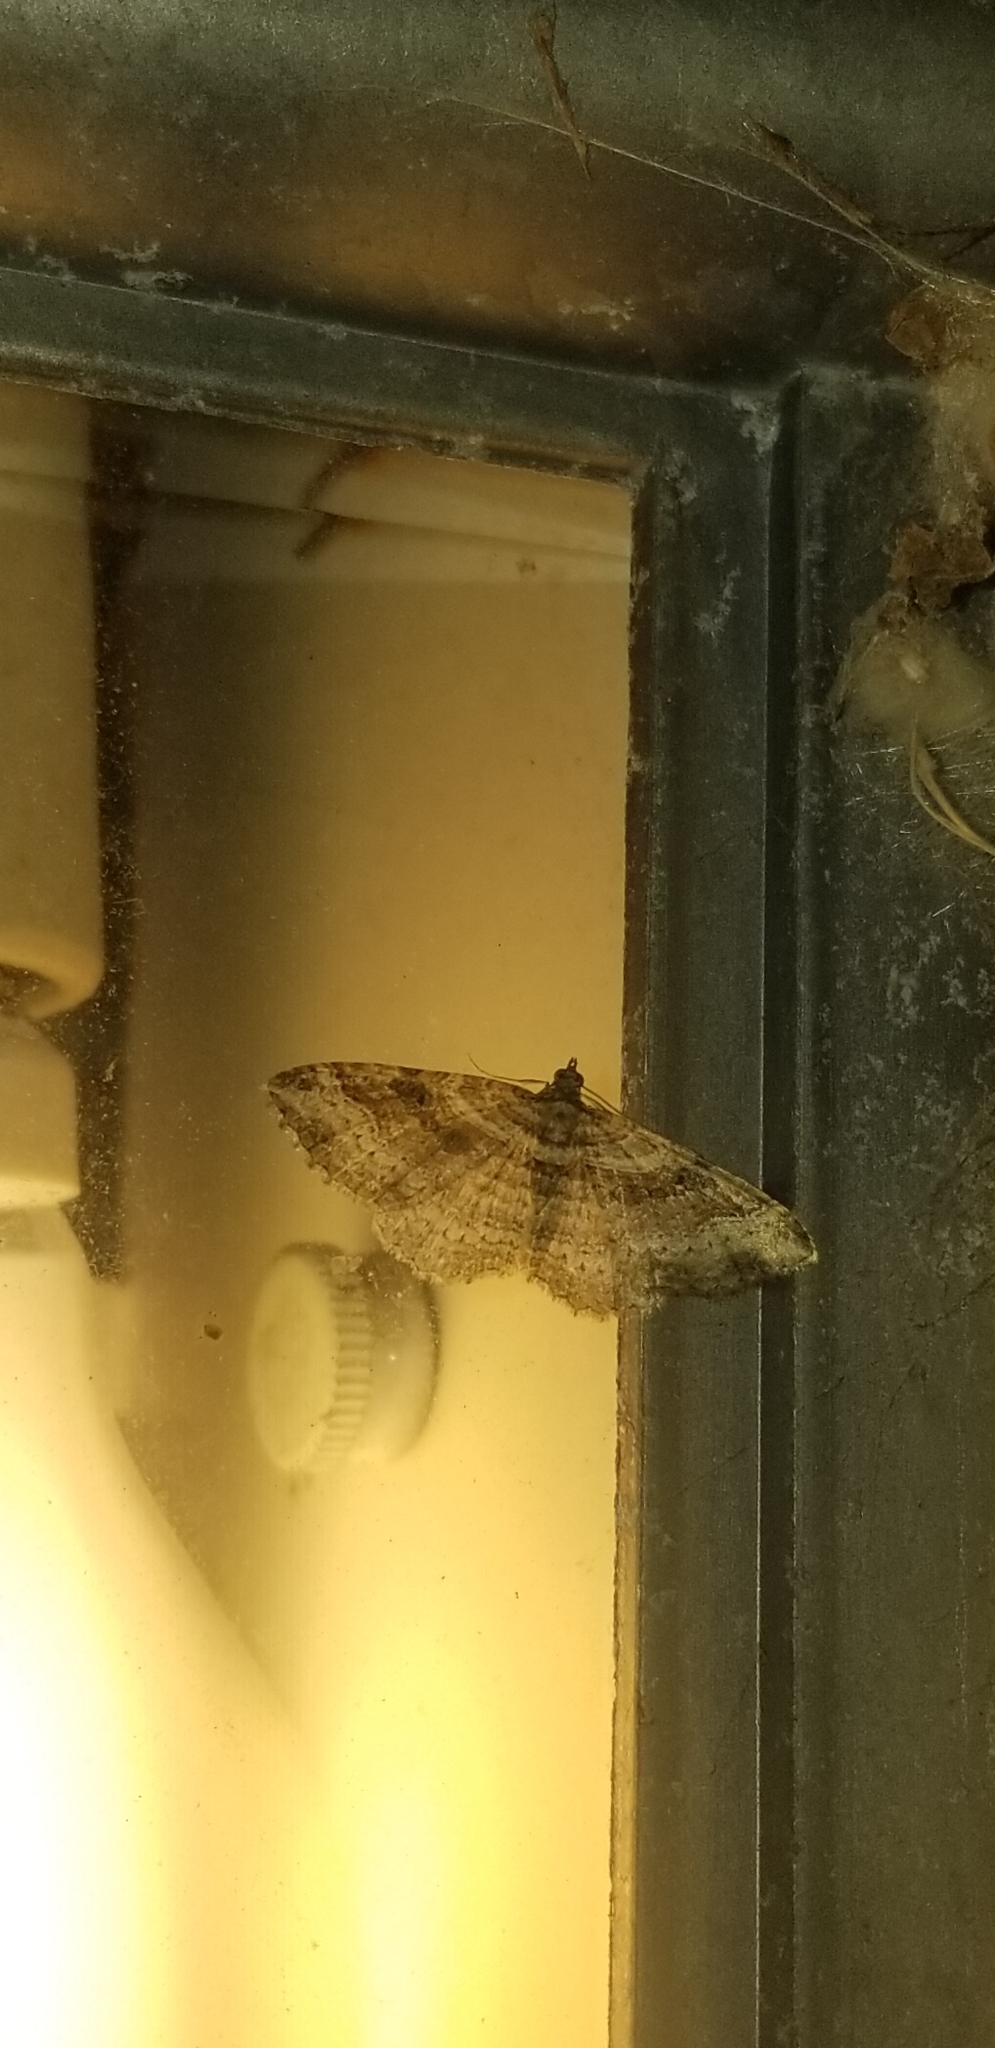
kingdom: Animalia
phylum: Arthropoda
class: Insecta
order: Lepidoptera
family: Geometridae
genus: Costaconvexa
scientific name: Costaconvexa centrostrigaria
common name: Bent-line carpet
